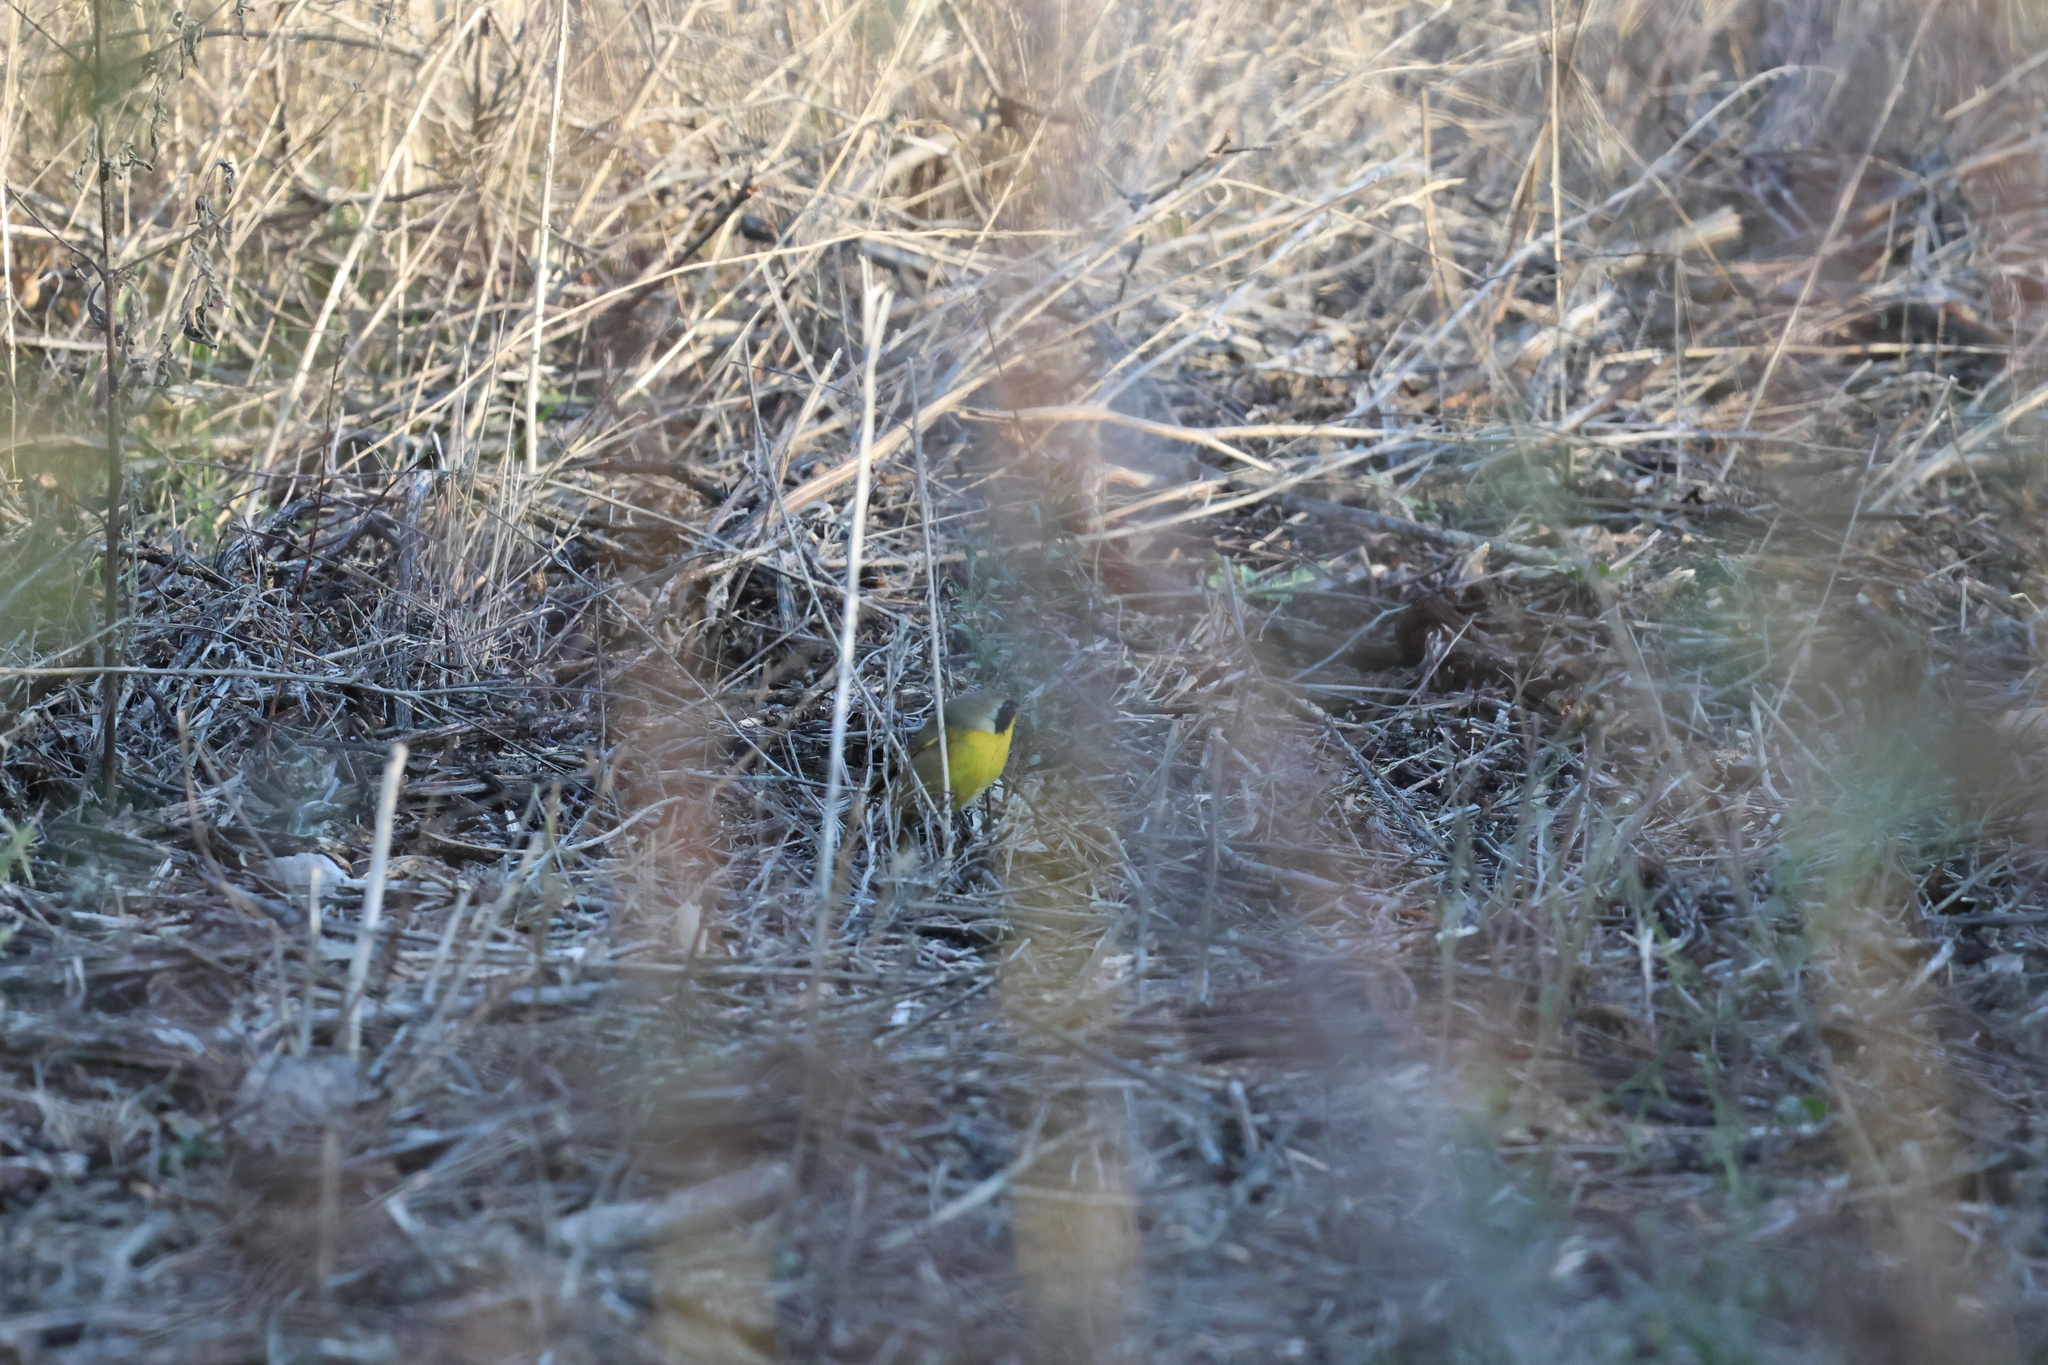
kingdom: Animalia
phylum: Chordata
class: Aves
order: Passeriformes
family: Parulidae
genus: Geothlypis
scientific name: Geothlypis trichas
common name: Common yellowthroat
